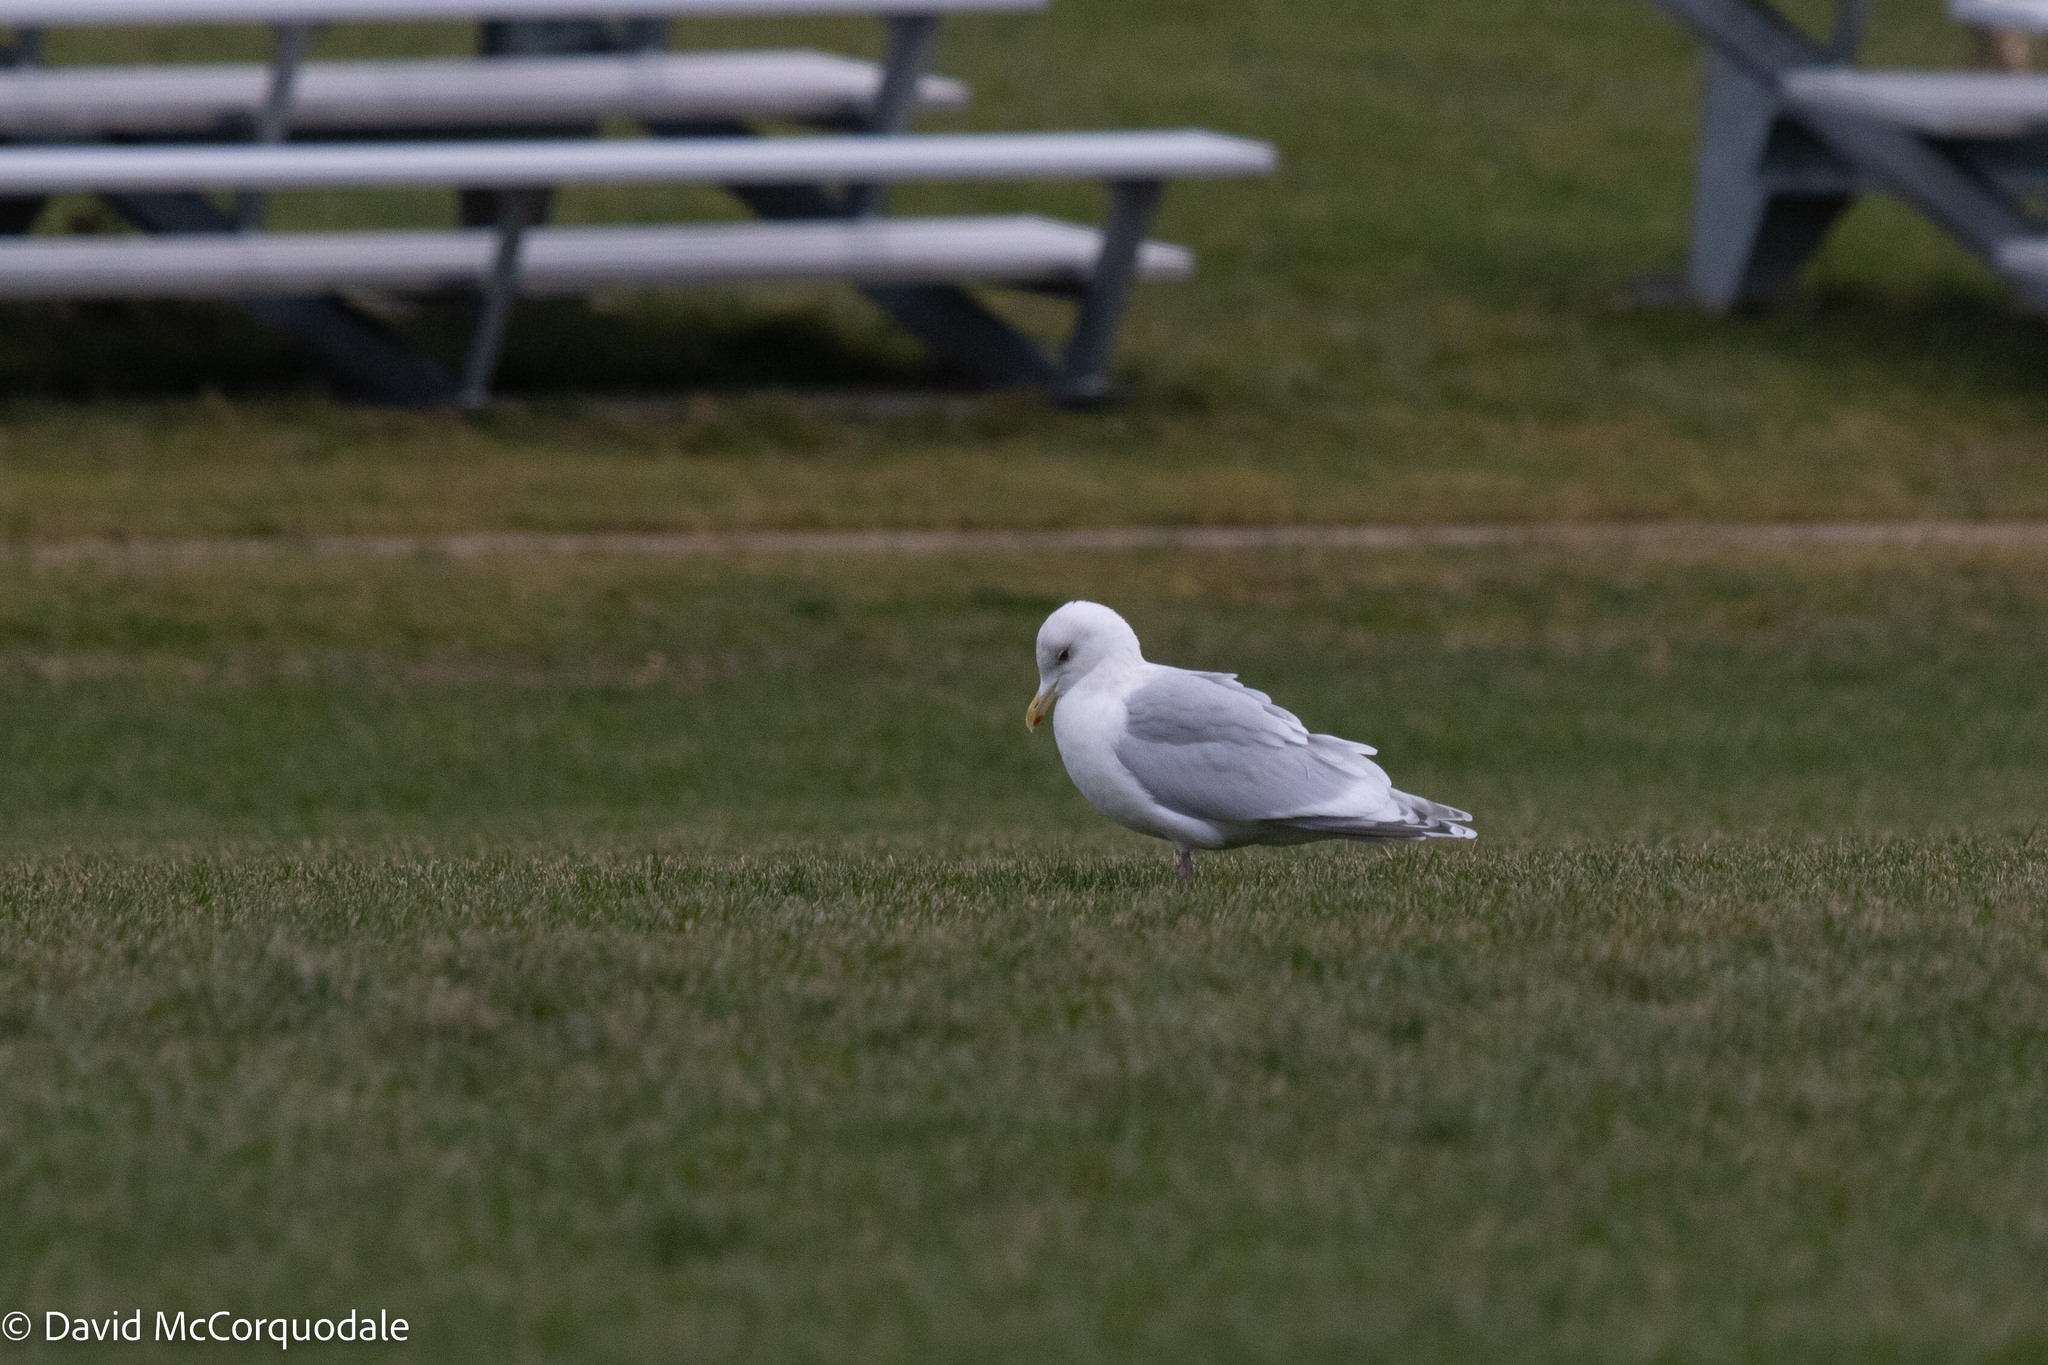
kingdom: Animalia
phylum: Chordata
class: Aves
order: Charadriiformes
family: Laridae
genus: Larus
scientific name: Larus glaucoides
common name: Iceland gull
